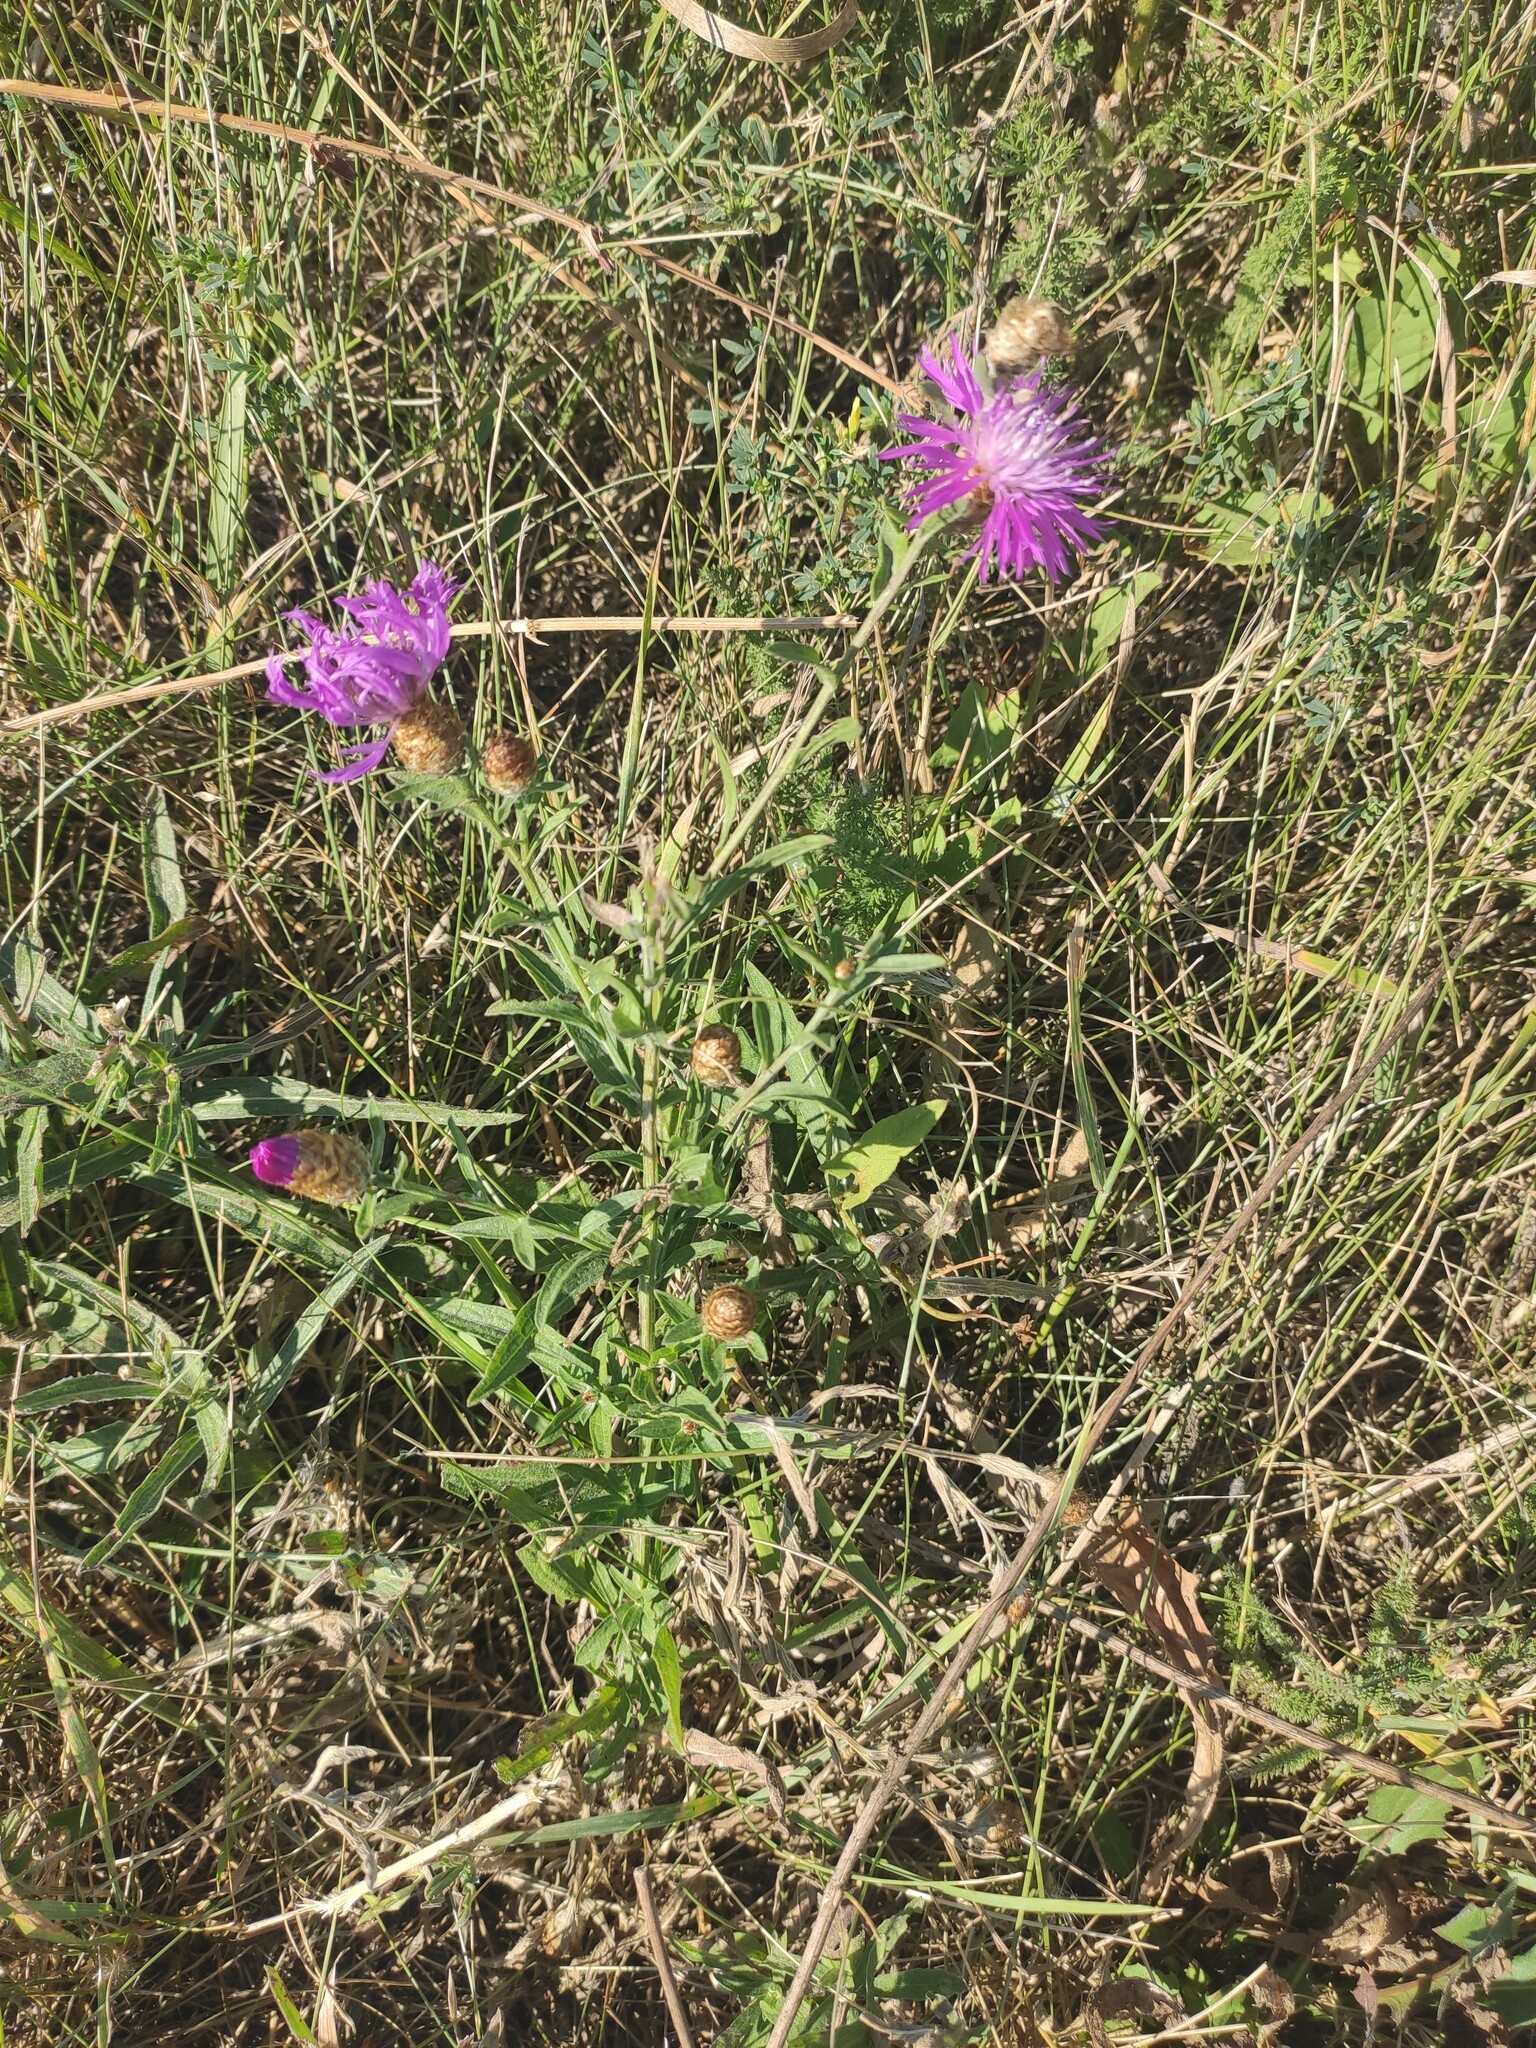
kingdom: Plantae
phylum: Tracheophyta
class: Magnoliopsida
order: Asterales
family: Asteraceae
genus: Centaurea
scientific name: Centaurea jacea
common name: Brown knapweed
